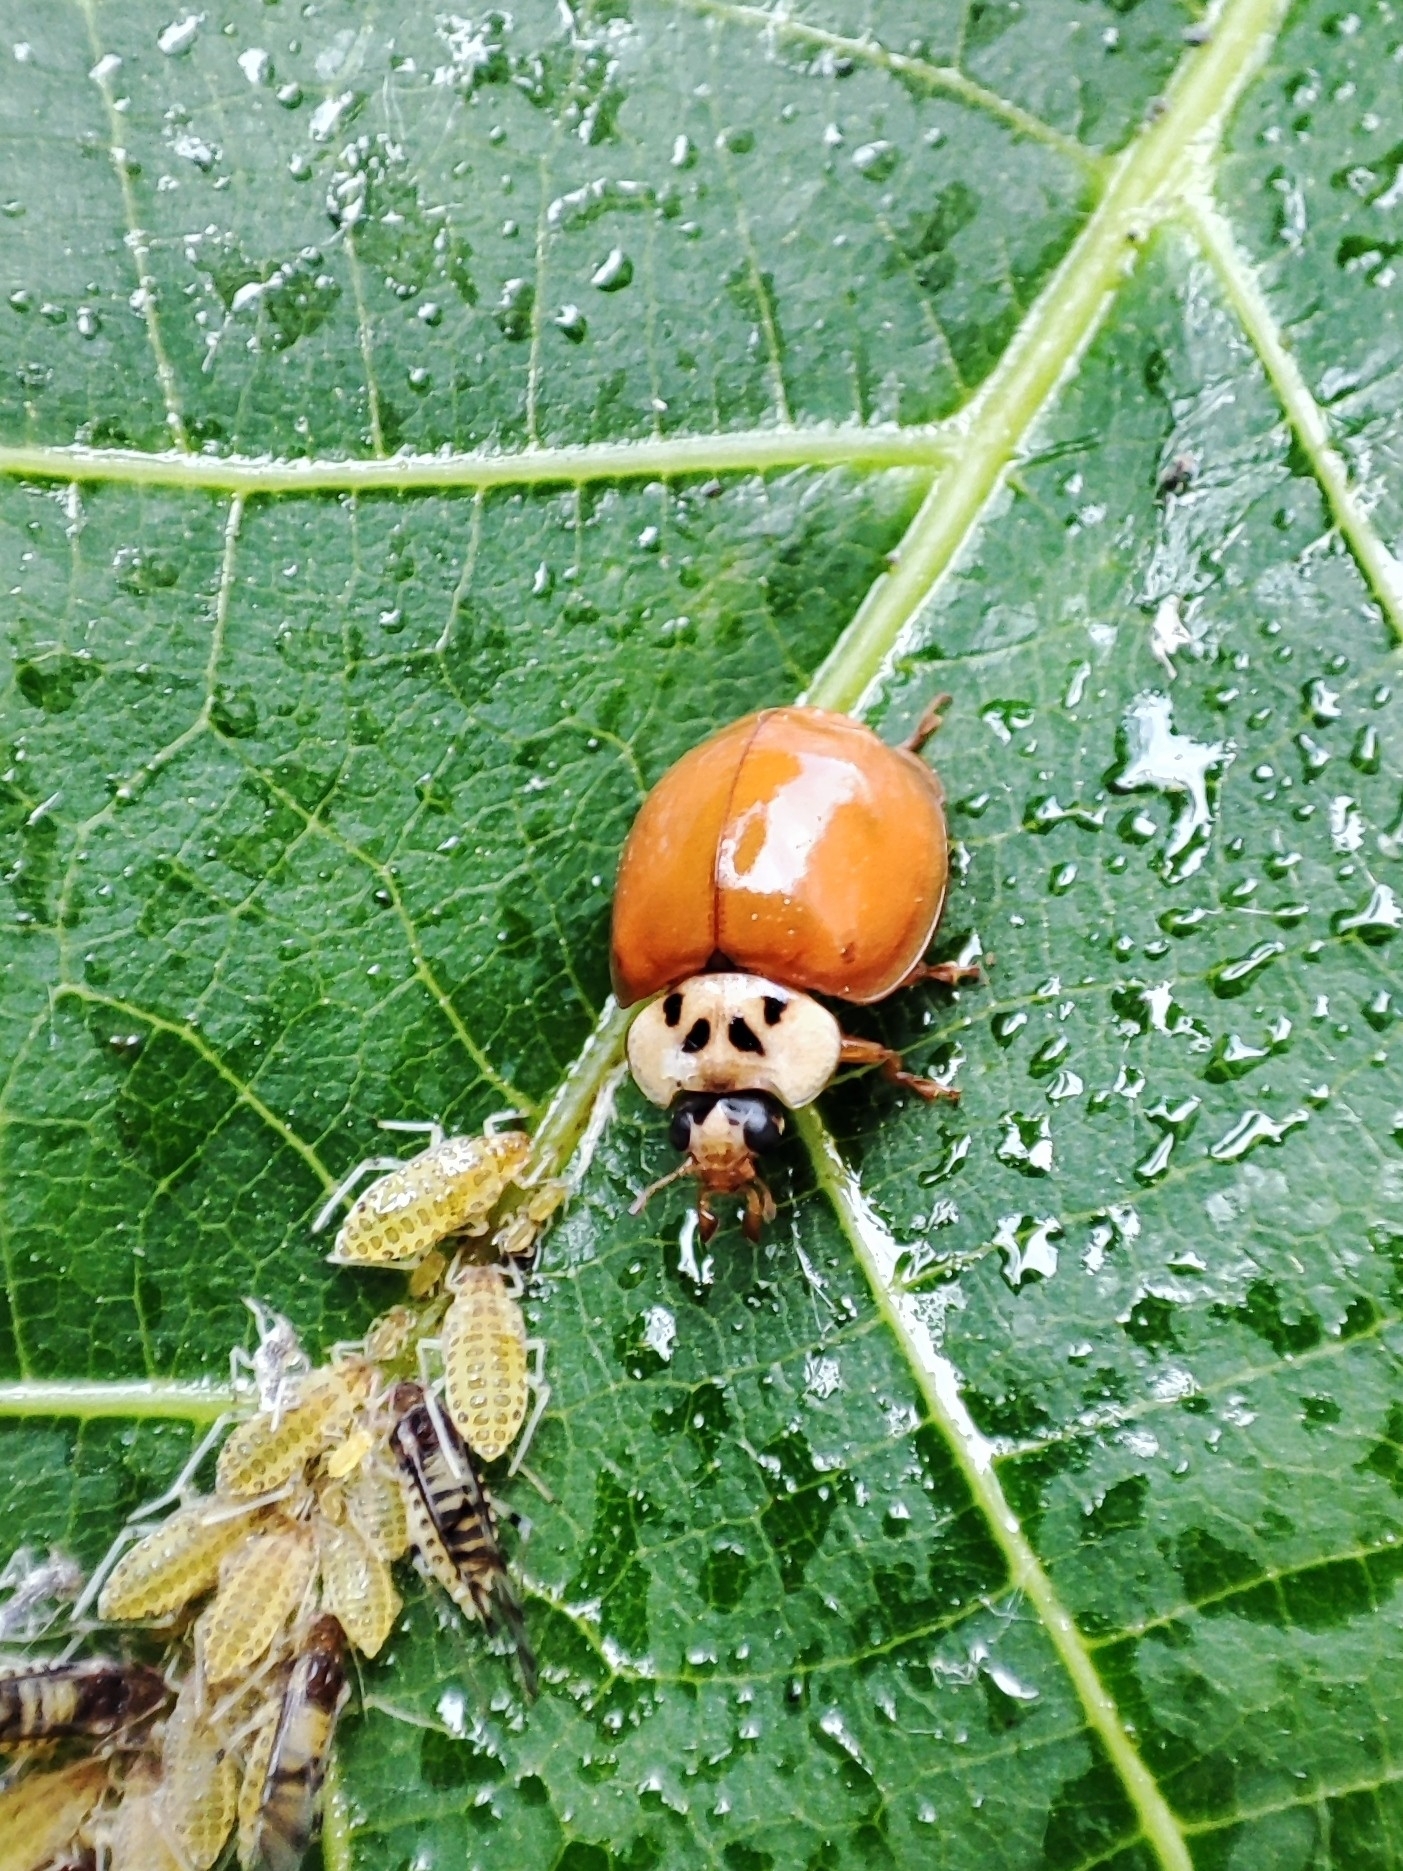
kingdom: Animalia
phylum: Arthropoda
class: Insecta
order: Coleoptera
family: Coccinellidae
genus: Harmonia
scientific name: Harmonia axyridis
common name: Harlequin ladybird
